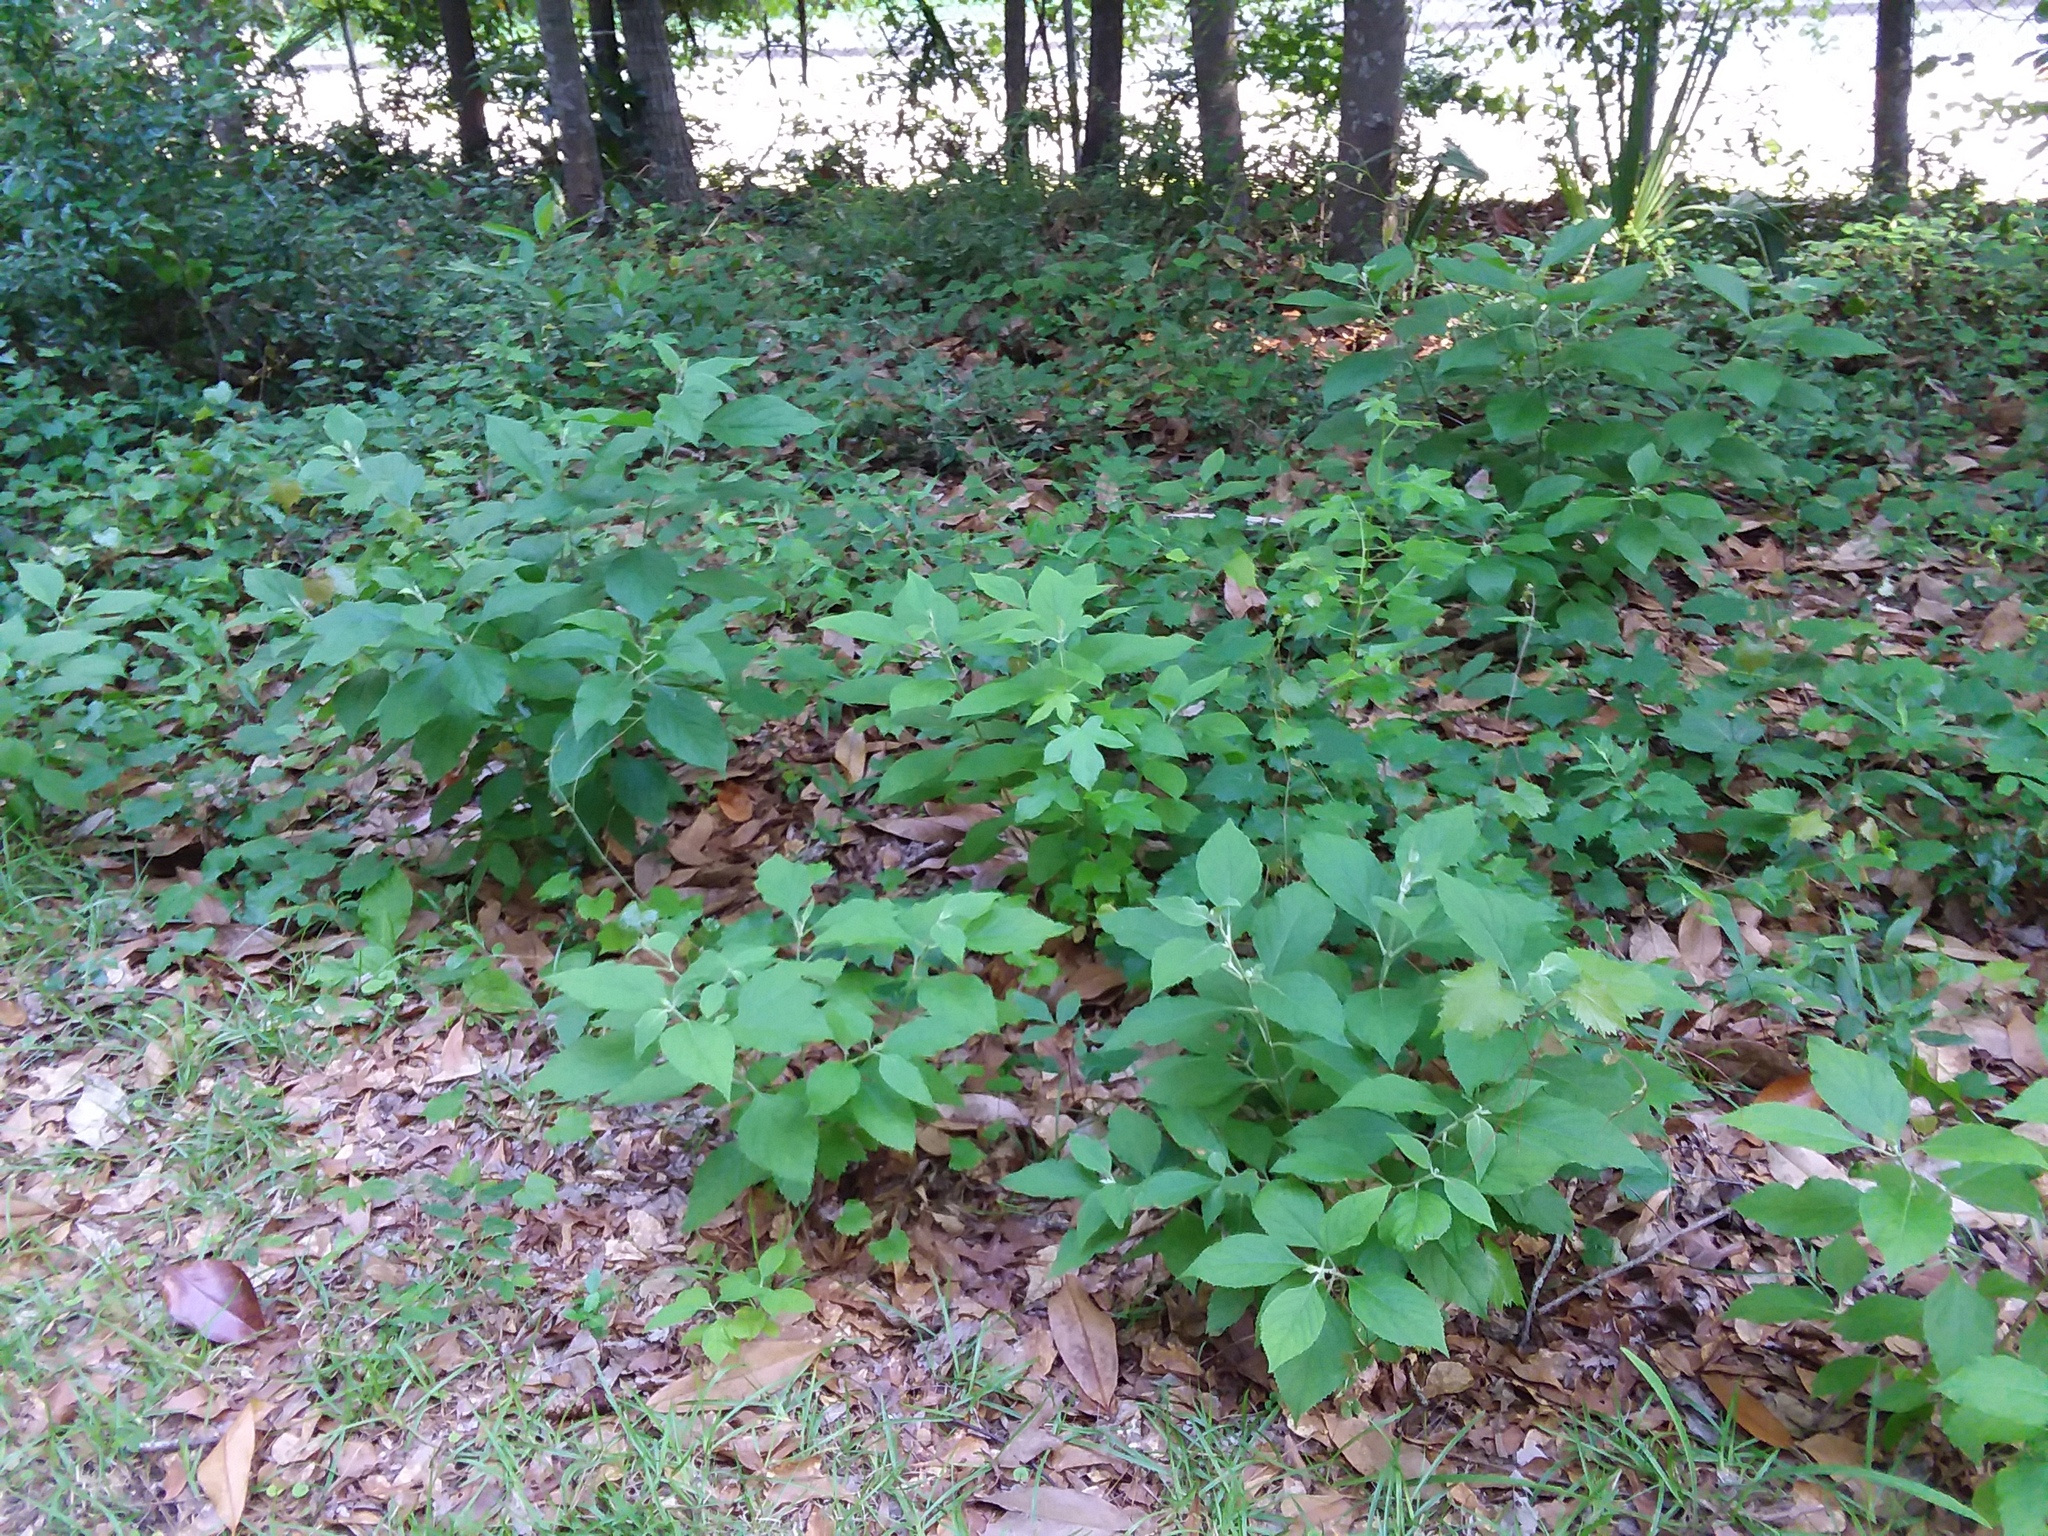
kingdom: Plantae
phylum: Tracheophyta
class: Magnoliopsida
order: Lamiales
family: Lamiaceae
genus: Callicarpa
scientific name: Callicarpa americana
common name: American beautyberry
